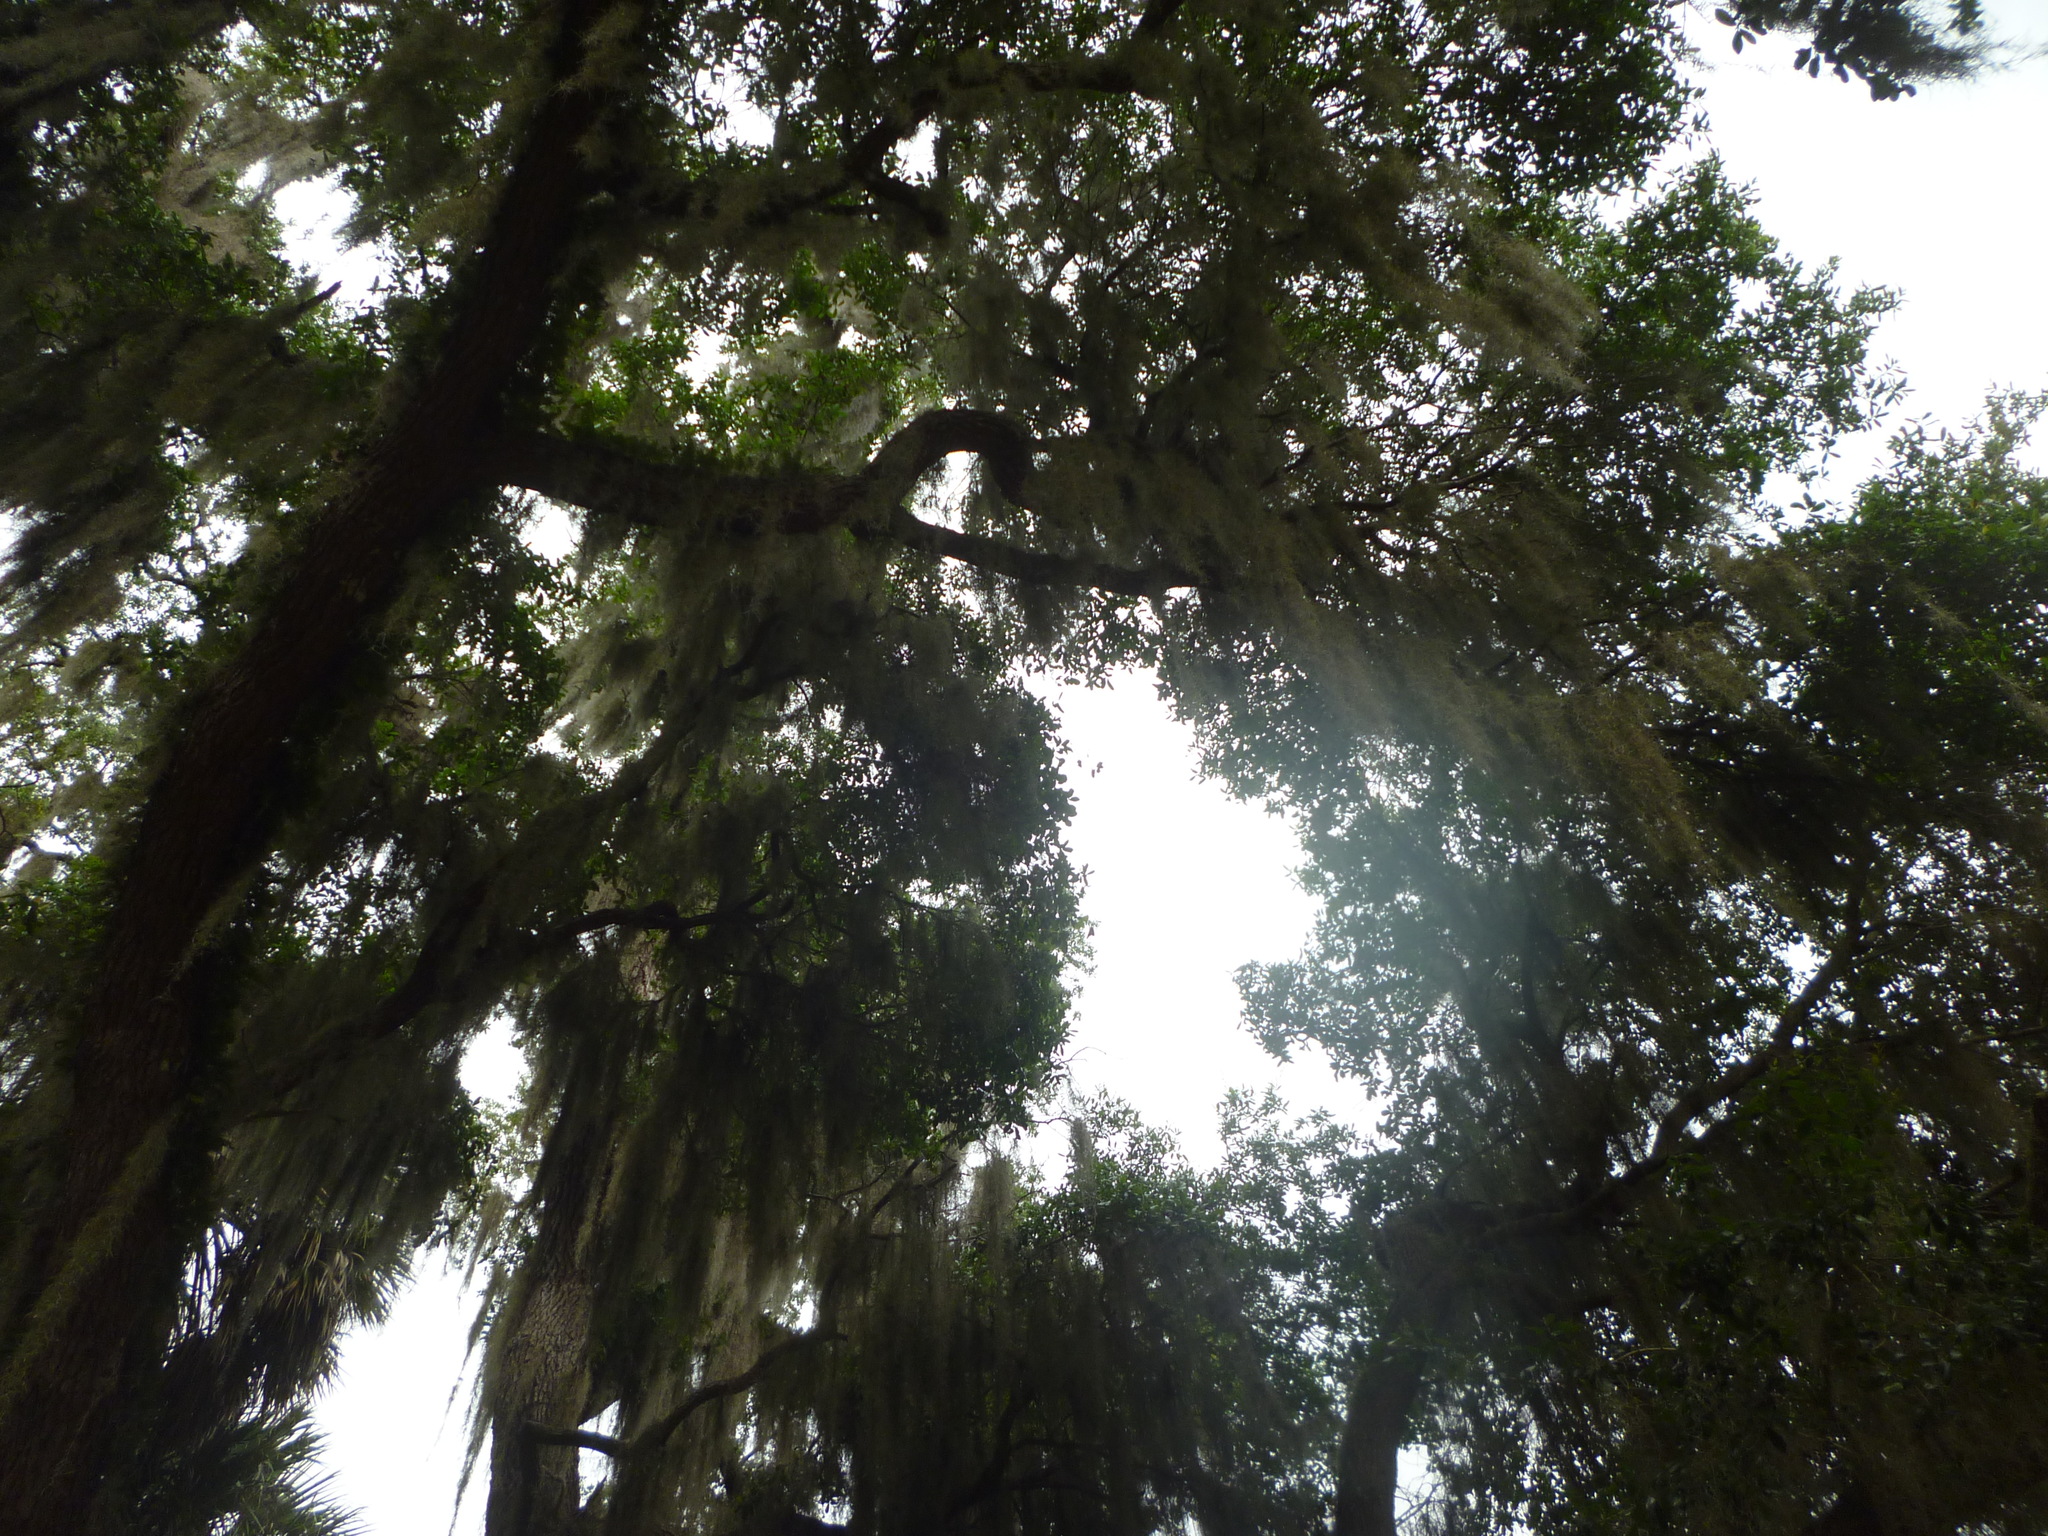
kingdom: Plantae
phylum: Tracheophyta
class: Liliopsida
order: Poales
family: Bromeliaceae
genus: Tillandsia
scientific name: Tillandsia usneoides
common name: Spanish moss
